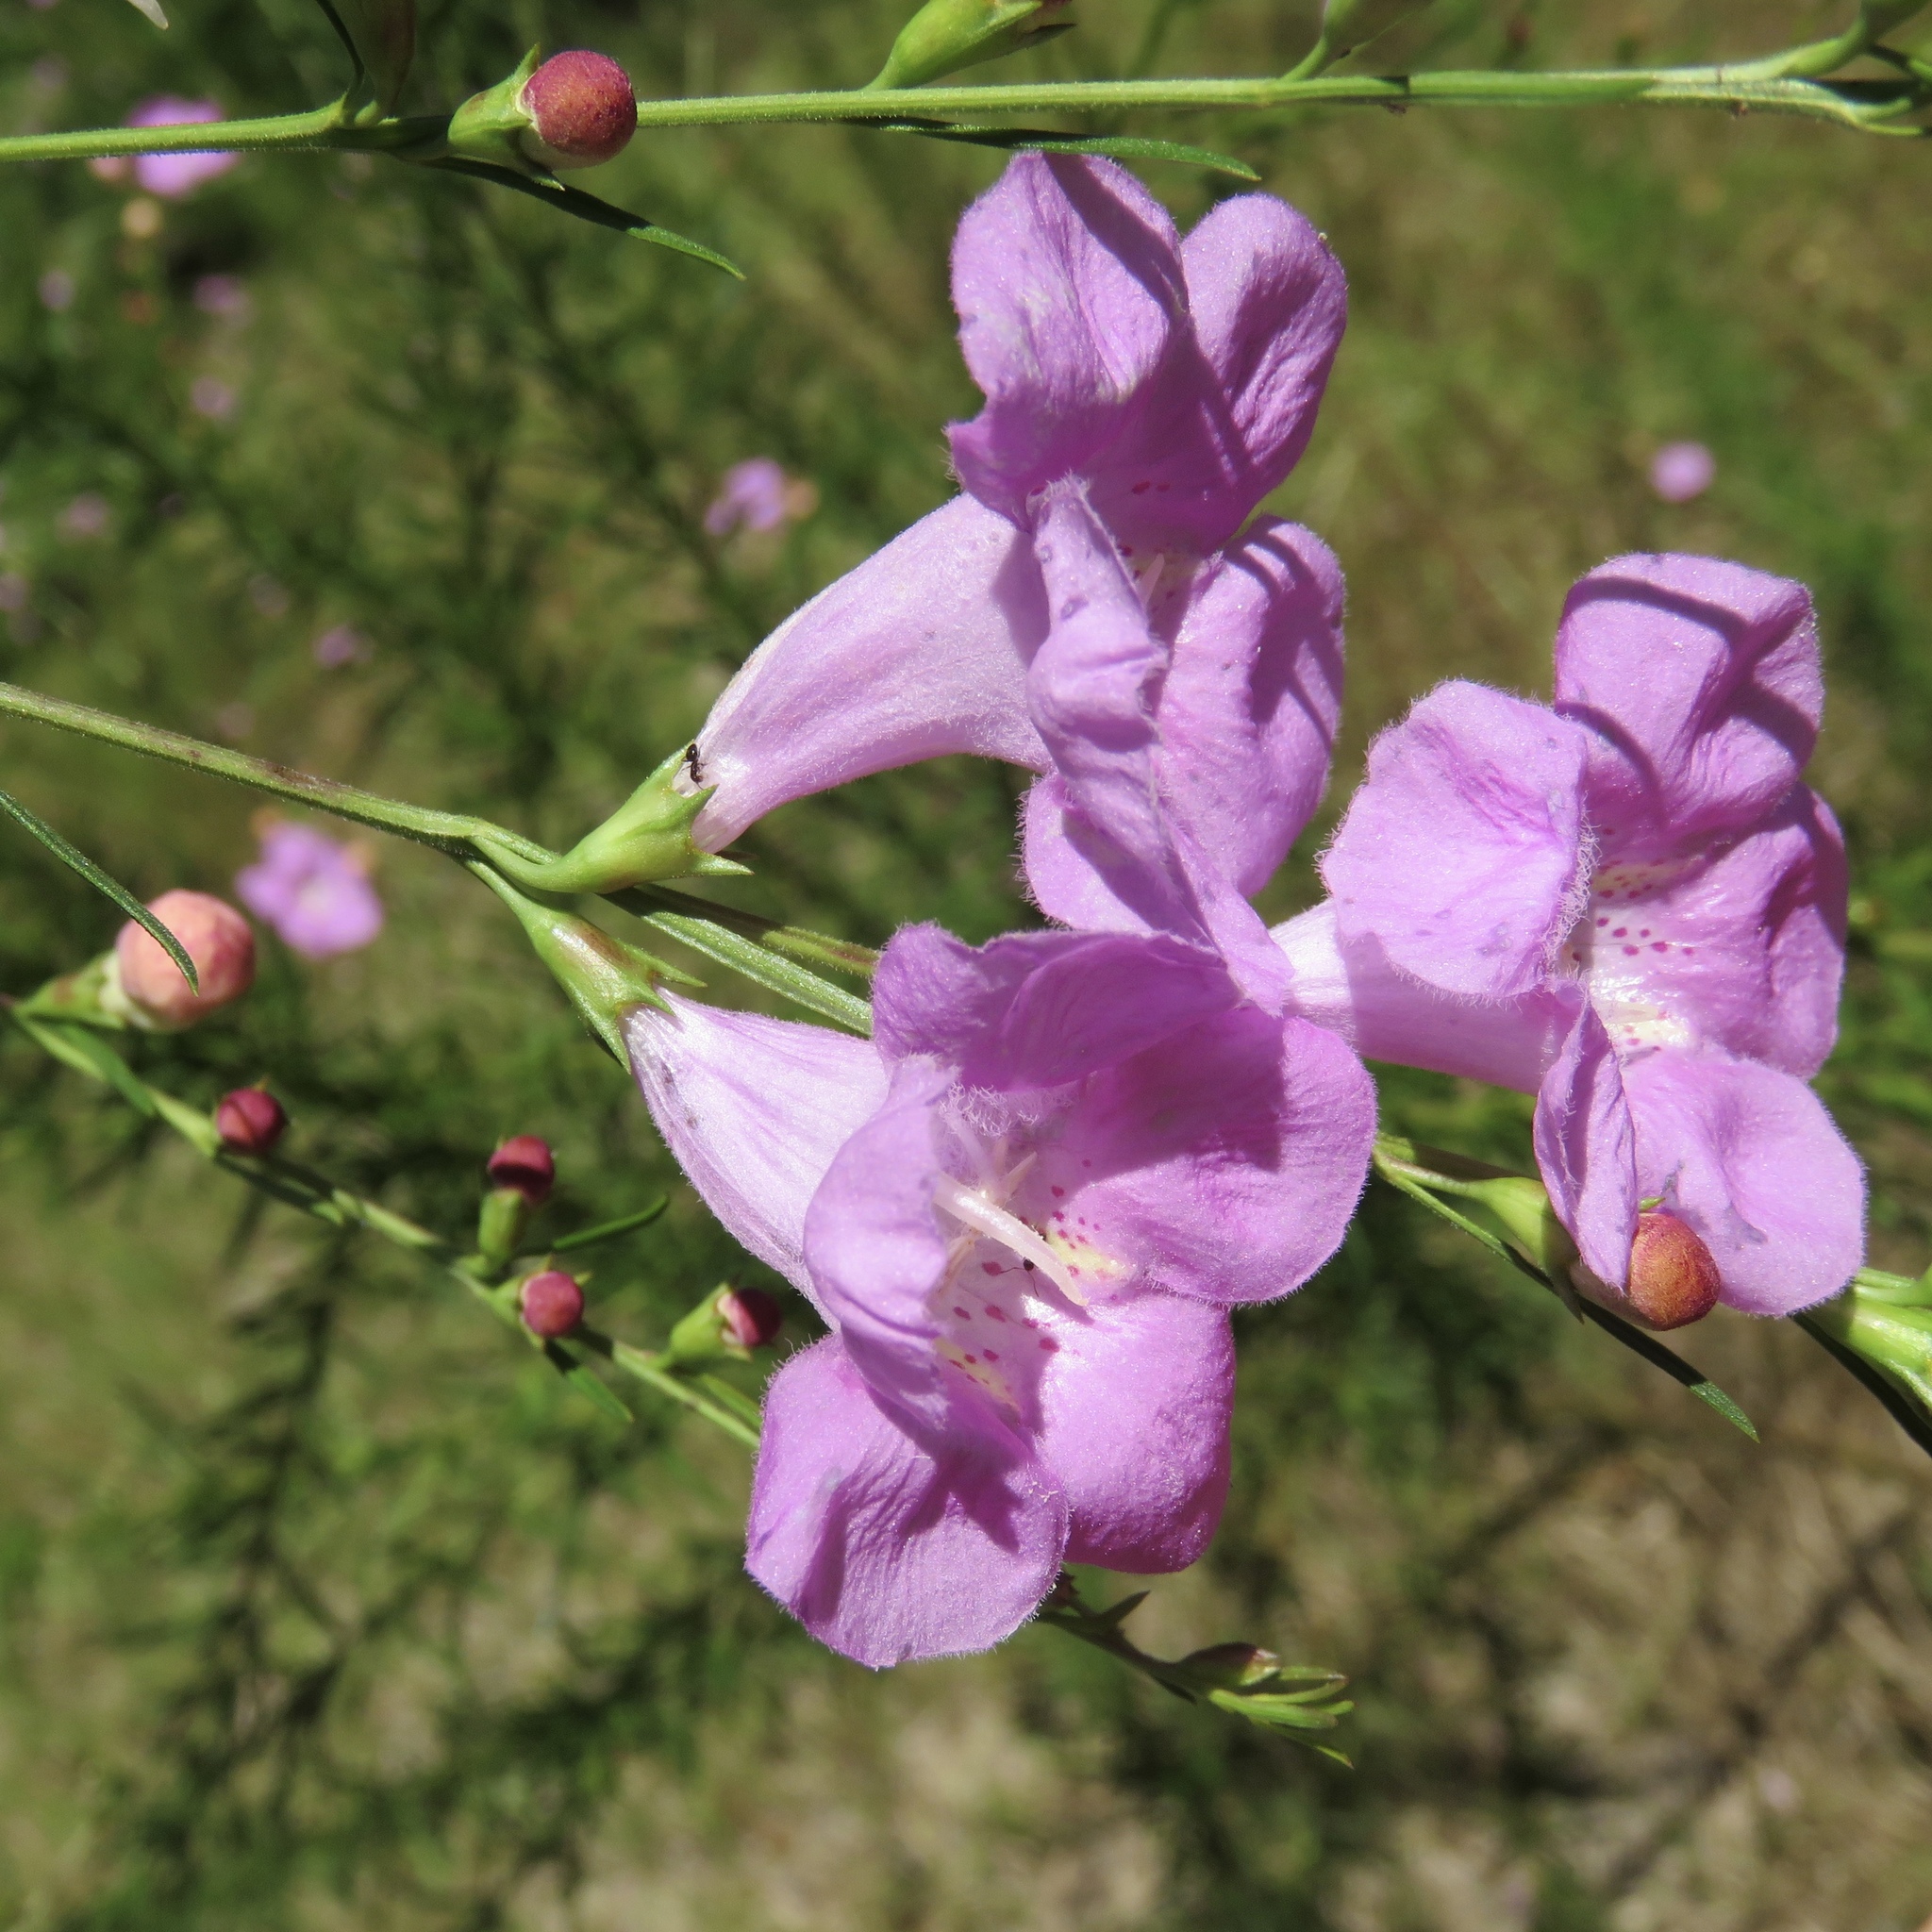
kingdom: Plantae
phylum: Tracheophyta
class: Magnoliopsida
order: Lamiales
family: Orobanchaceae
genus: Agalinis
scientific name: Agalinis fasciculata
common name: Beach false foxglove
